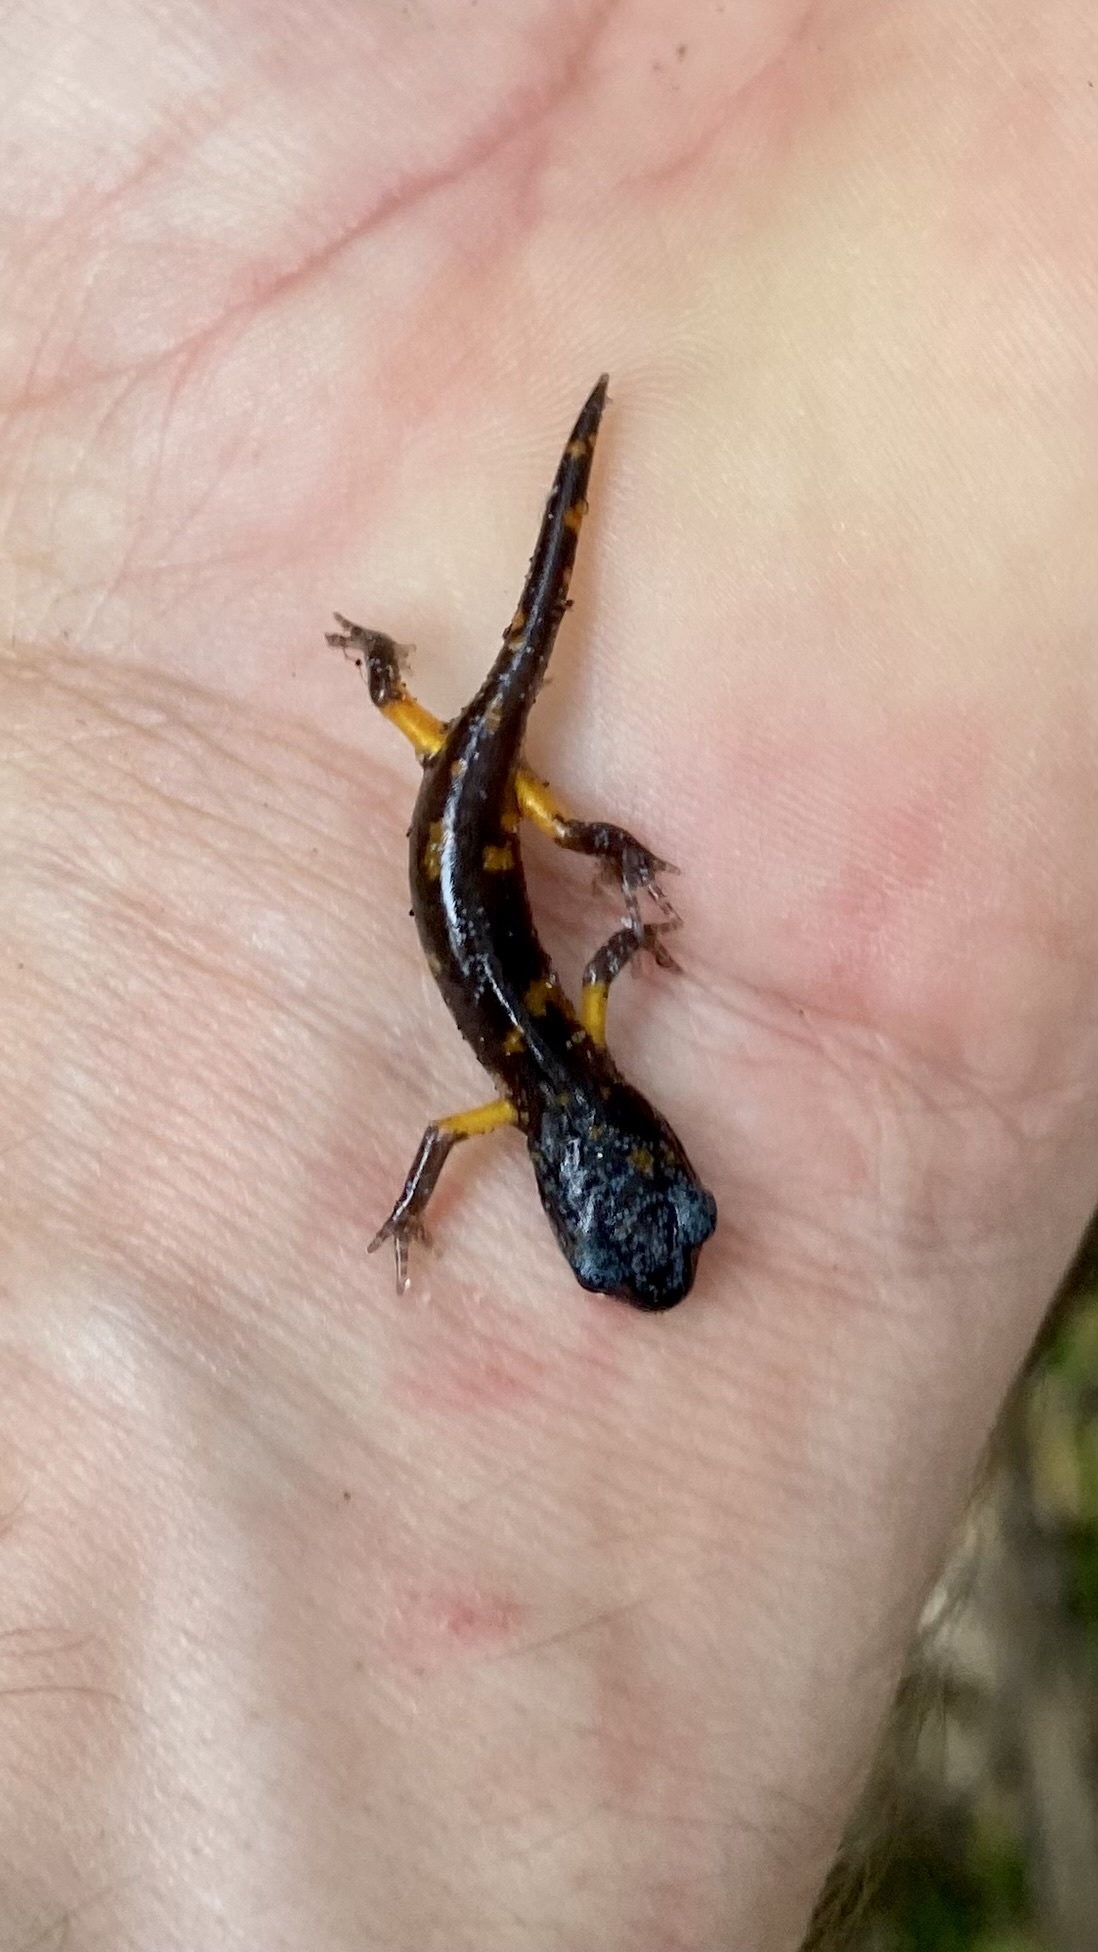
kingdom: Animalia
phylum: Chordata
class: Amphibia
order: Caudata
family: Plethodontidae
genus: Ensatina
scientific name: Ensatina eschscholtzii
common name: Ensatina
